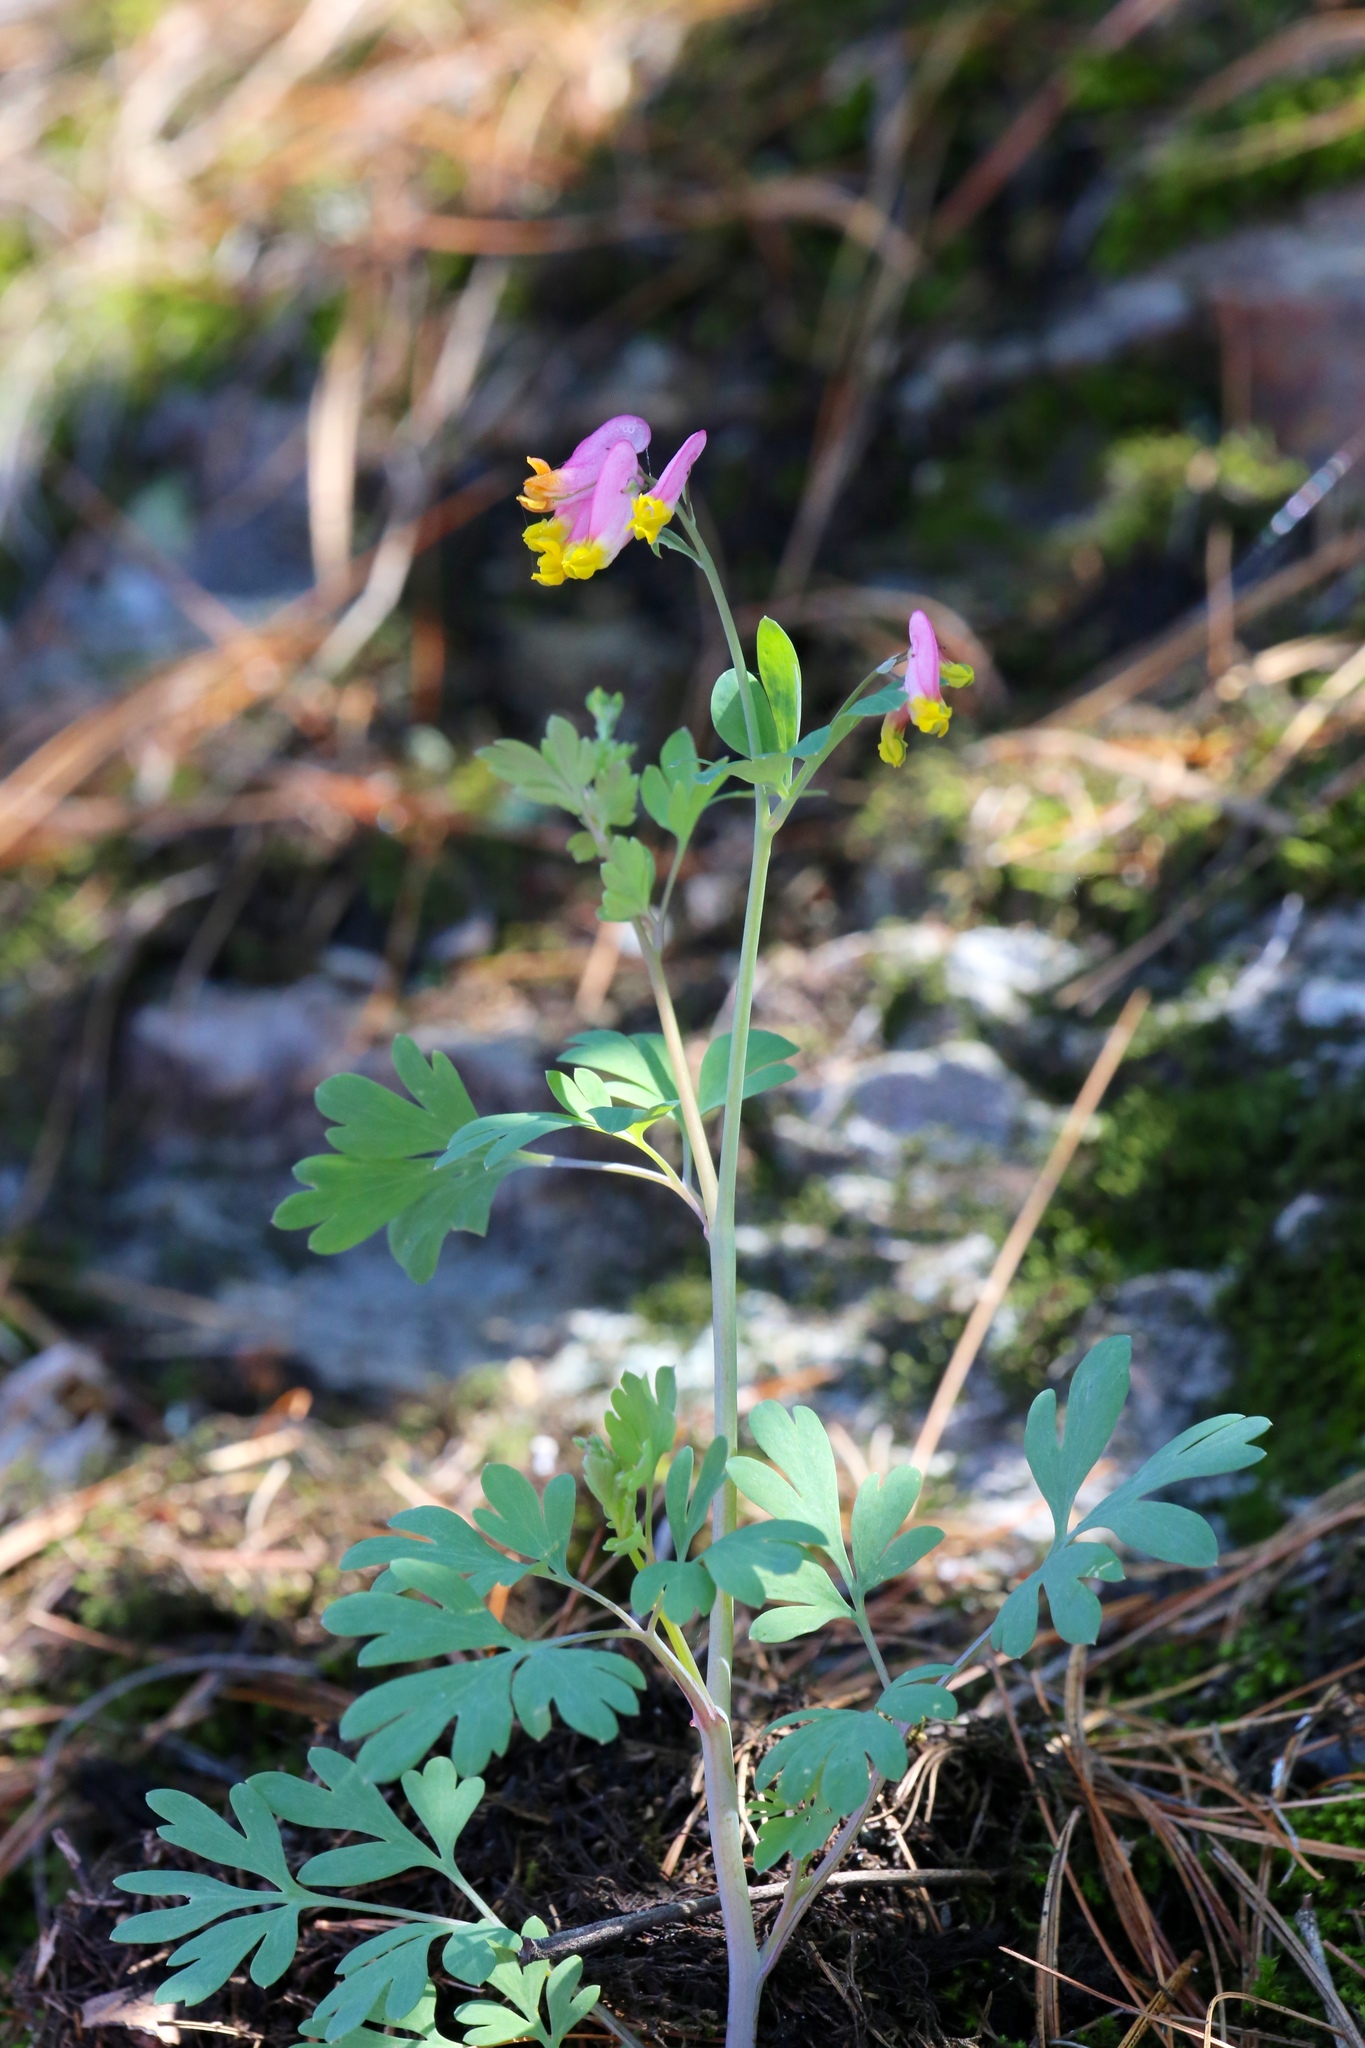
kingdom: Plantae
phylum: Tracheophyta
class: Magnoliopsida
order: Ranunculales
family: Papaveraceae
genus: Capnoides
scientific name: Capnoides sempervirens
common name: Rock harlequin
